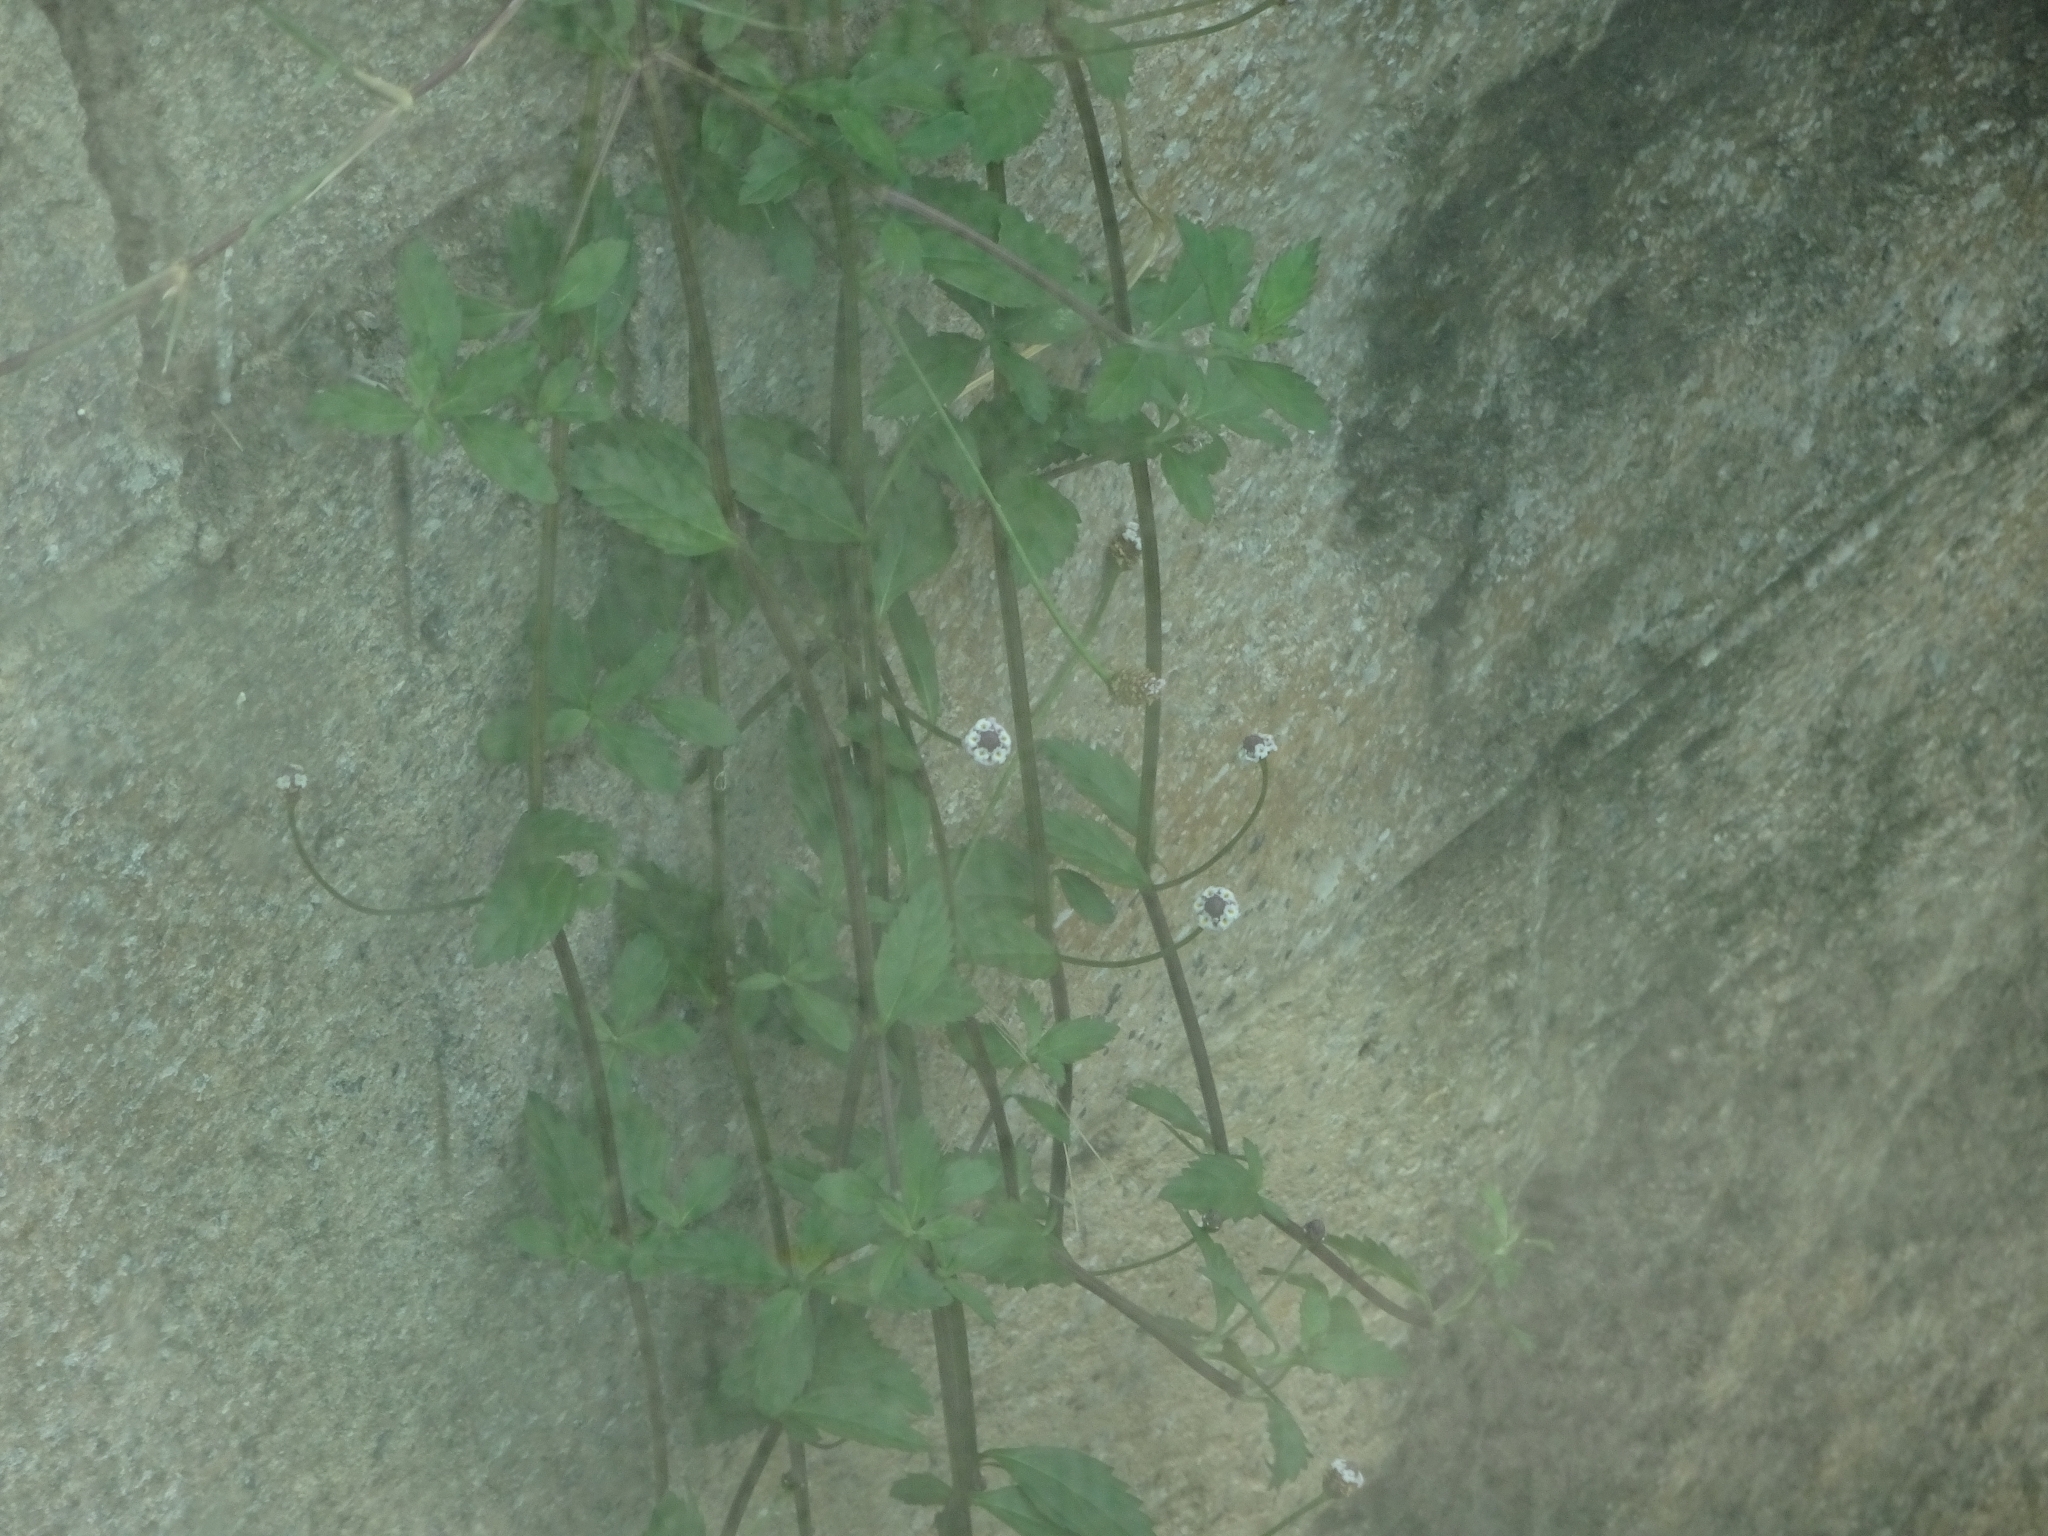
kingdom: Plantae
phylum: Tracheophyta
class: Magnoliopsida
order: Lamiales
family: Verbenaceae
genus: Phyla
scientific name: Phyla lanceolata
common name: Northern fogfruit
